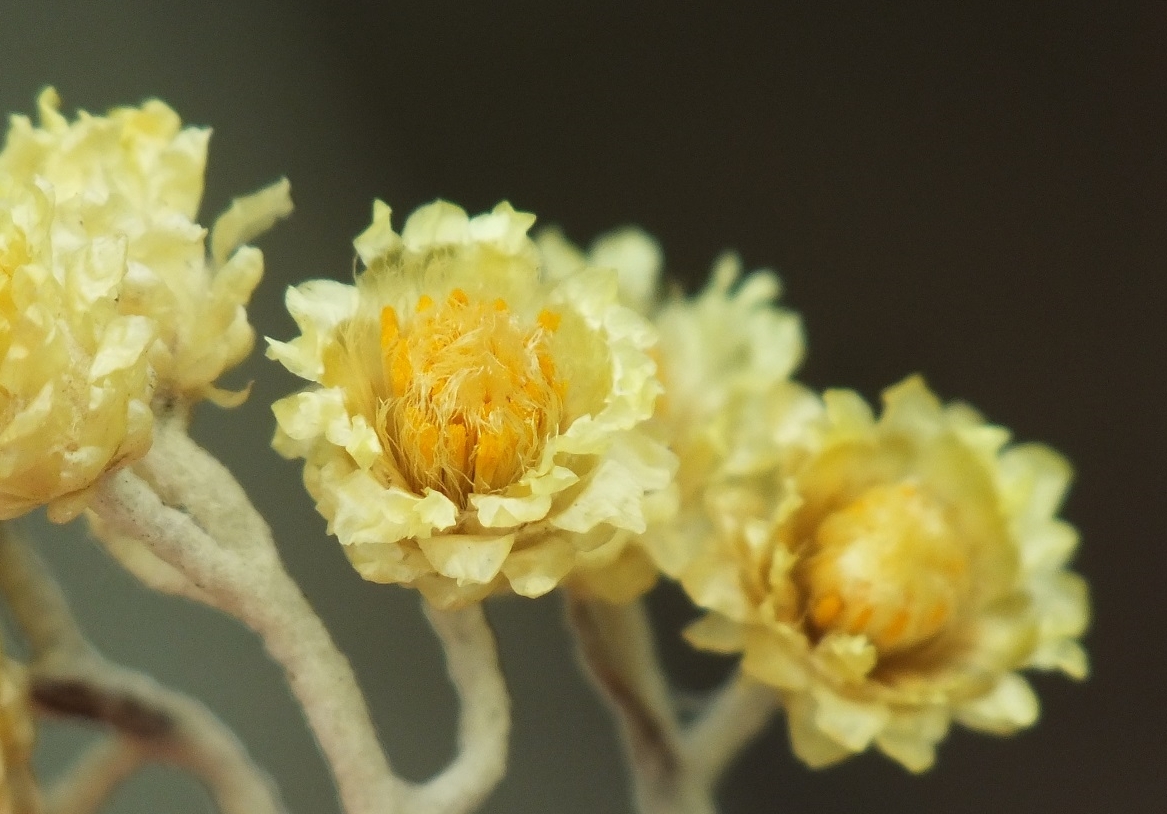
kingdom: Plantae
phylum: Tracheophyta
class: Magnoliopsida
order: Asterales
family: Asteraceae
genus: Helichrysum
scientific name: Helichrysum arenarium
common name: Strawflower
